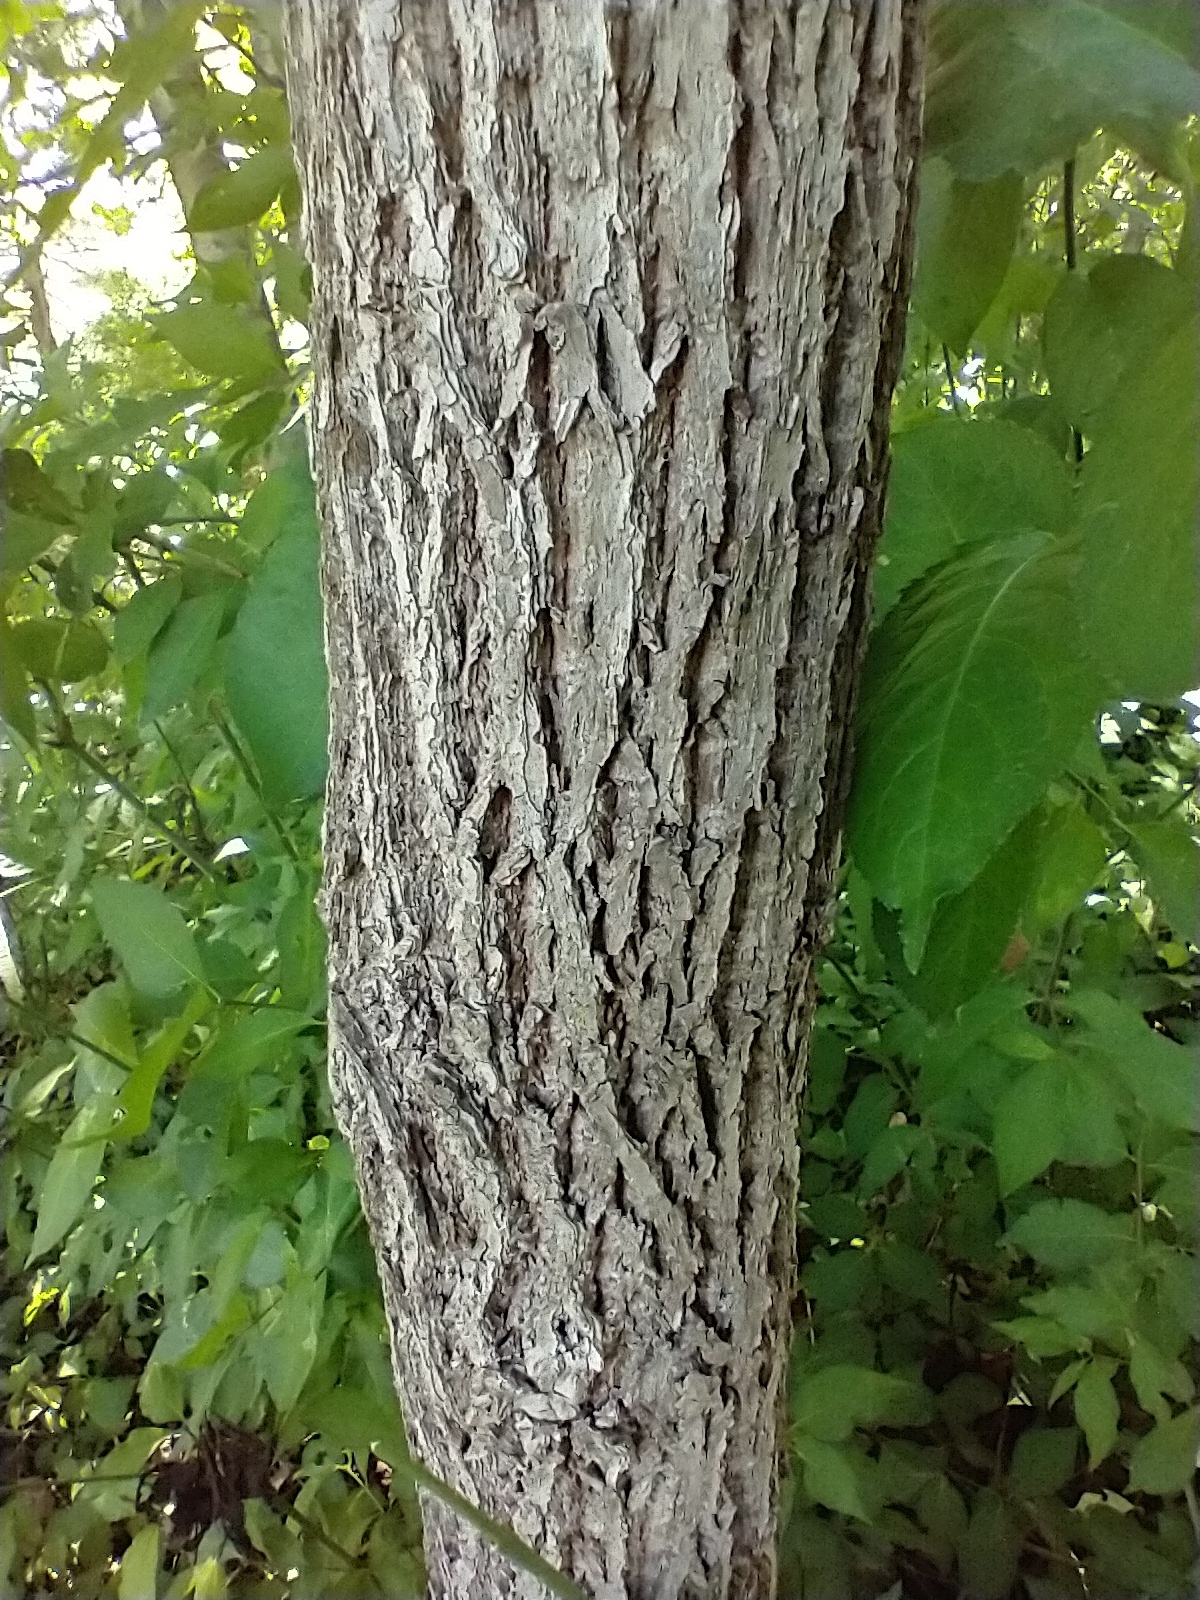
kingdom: Plantae
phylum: Tracheophyta
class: Magnoliopsida
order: Fagales
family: Juglandaceae
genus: Juglans
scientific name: Juglans nigra
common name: Black walnut
